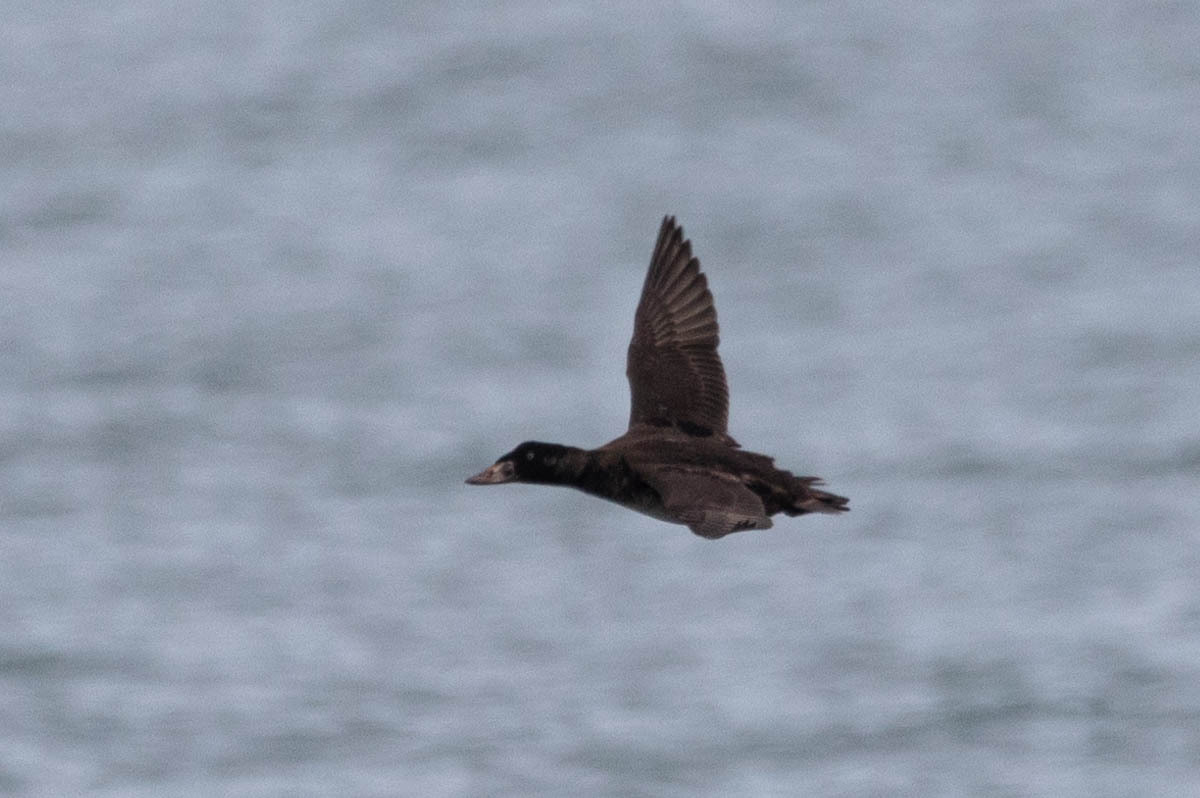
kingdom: Animalia
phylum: Chordata
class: Aves
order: Anseriformes
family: Anatidae
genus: Melanitta
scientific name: Melanitta perspicillata
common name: Surf scoter
